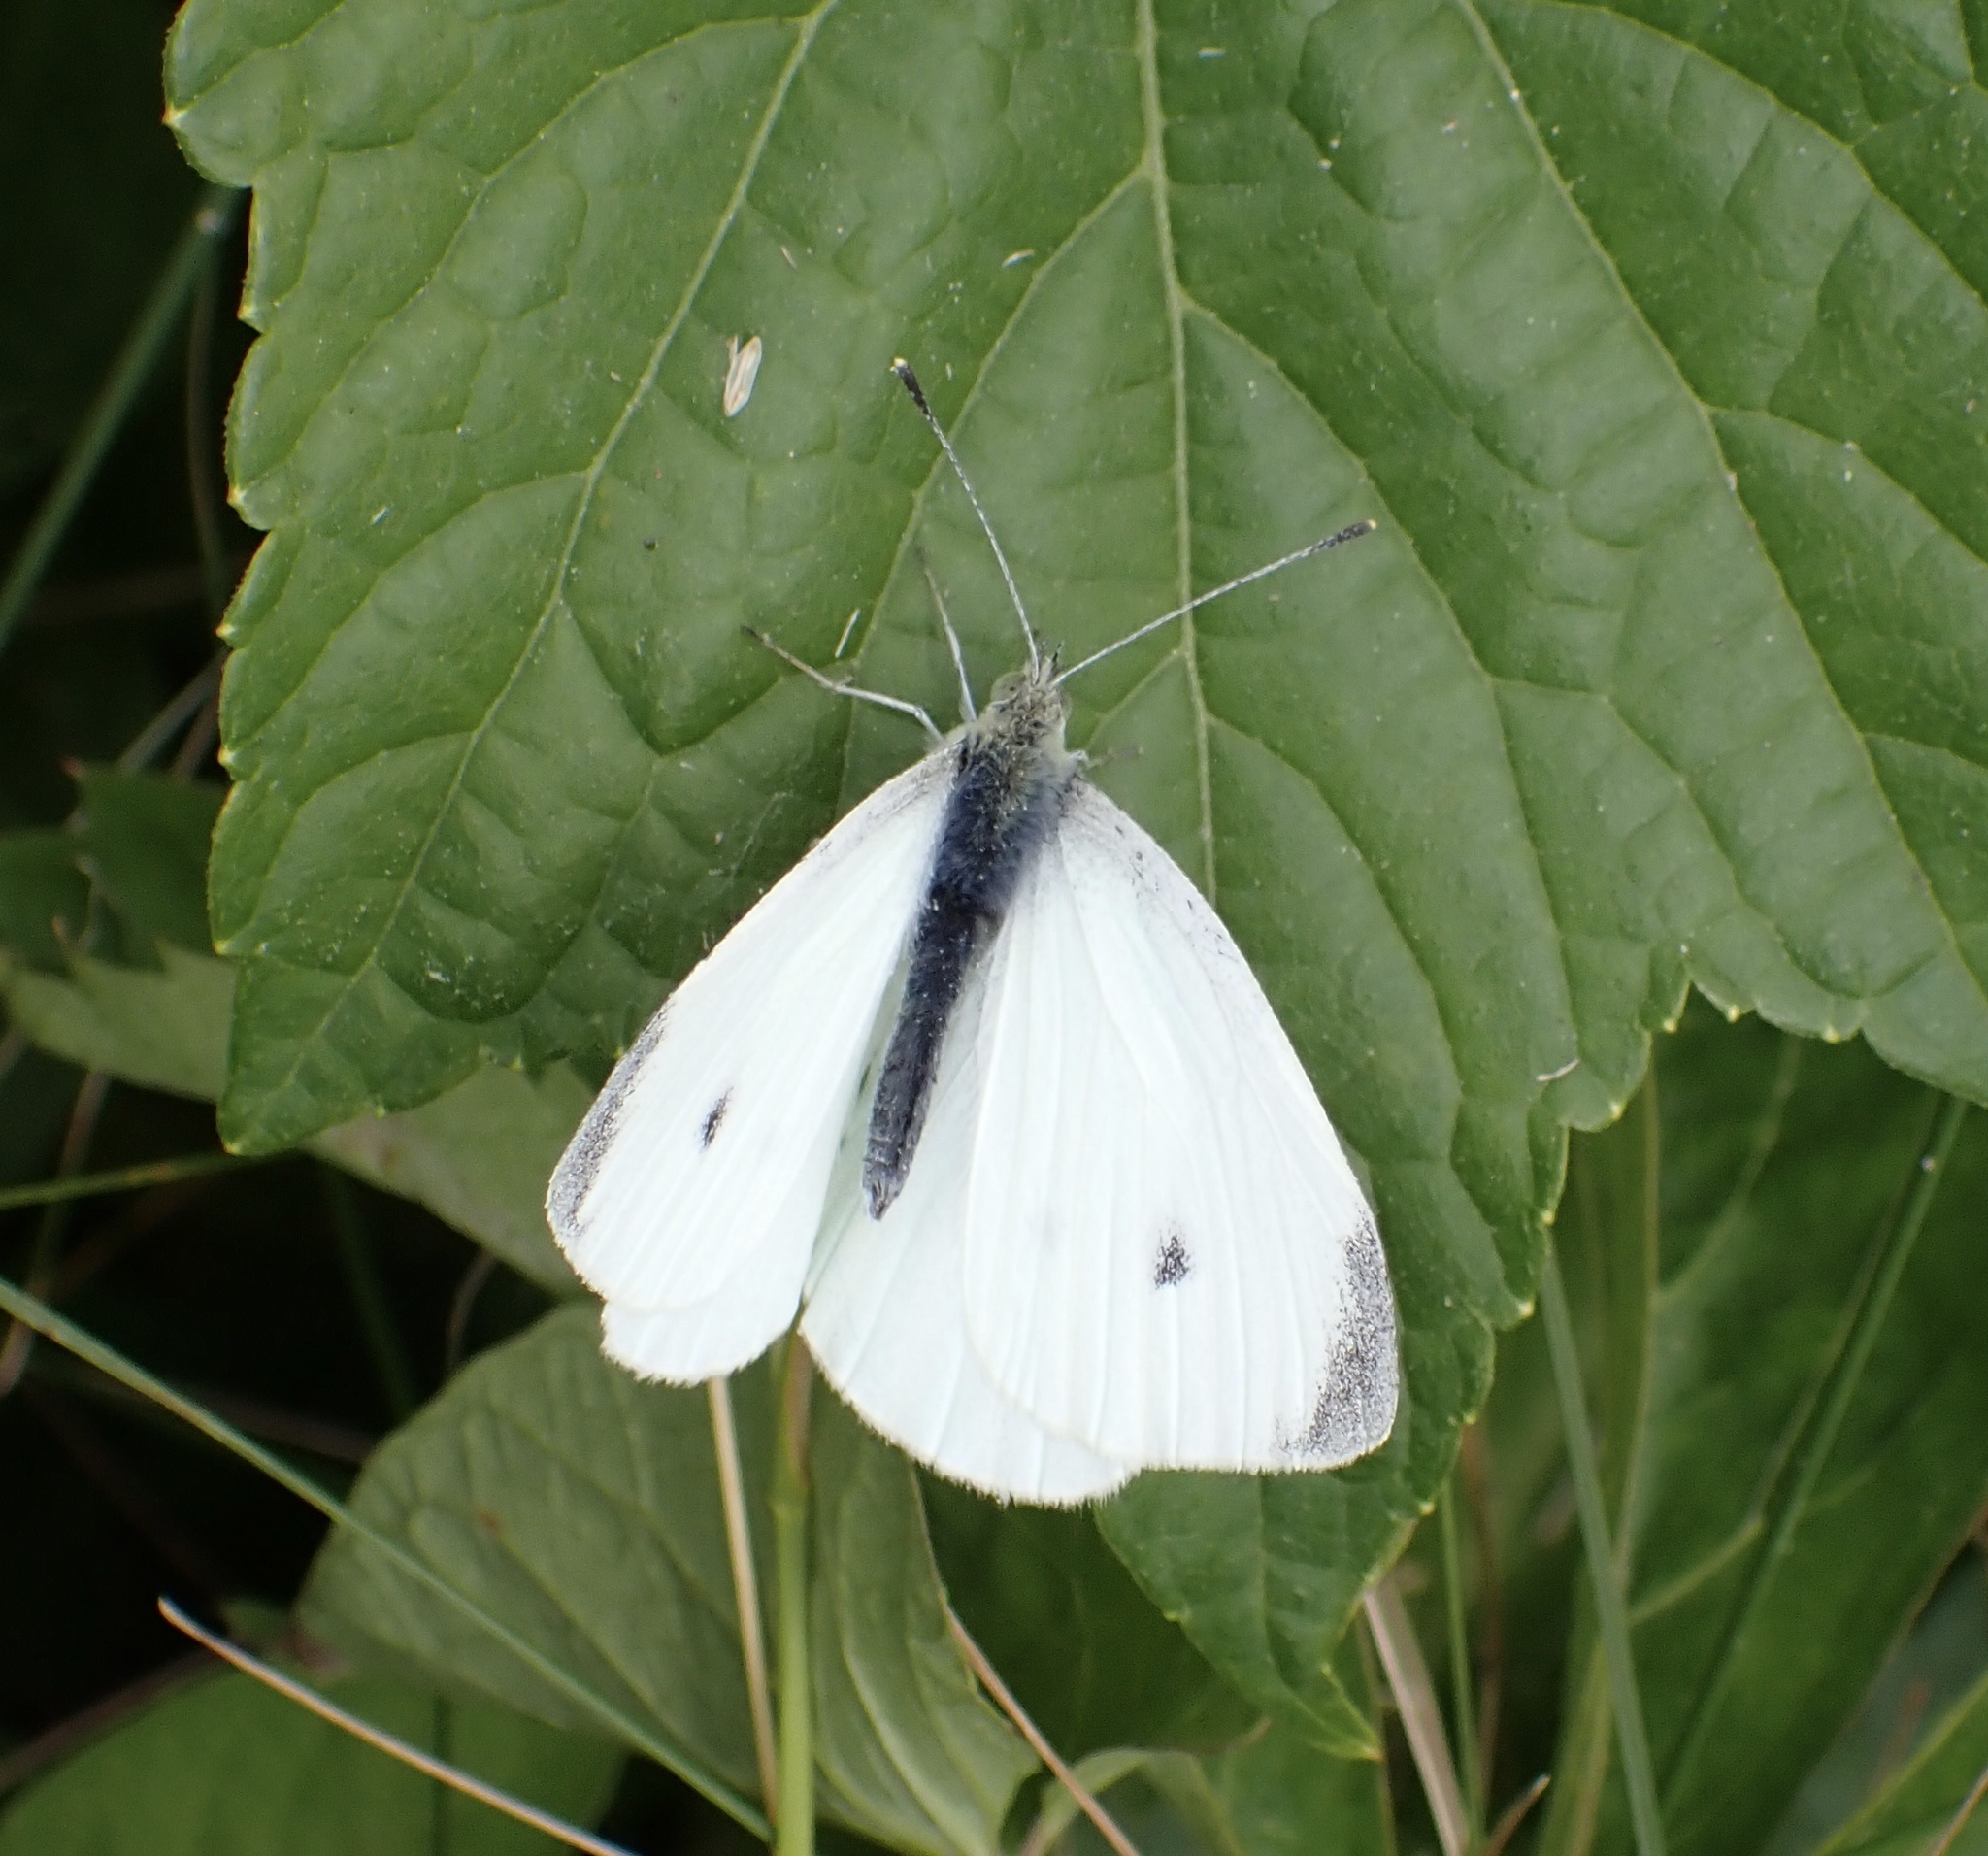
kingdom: Animalia
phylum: Arthropoda
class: Insecta
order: Lepidoptera
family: Pieridae
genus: Pieris
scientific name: Pieris rapae
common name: Small white
